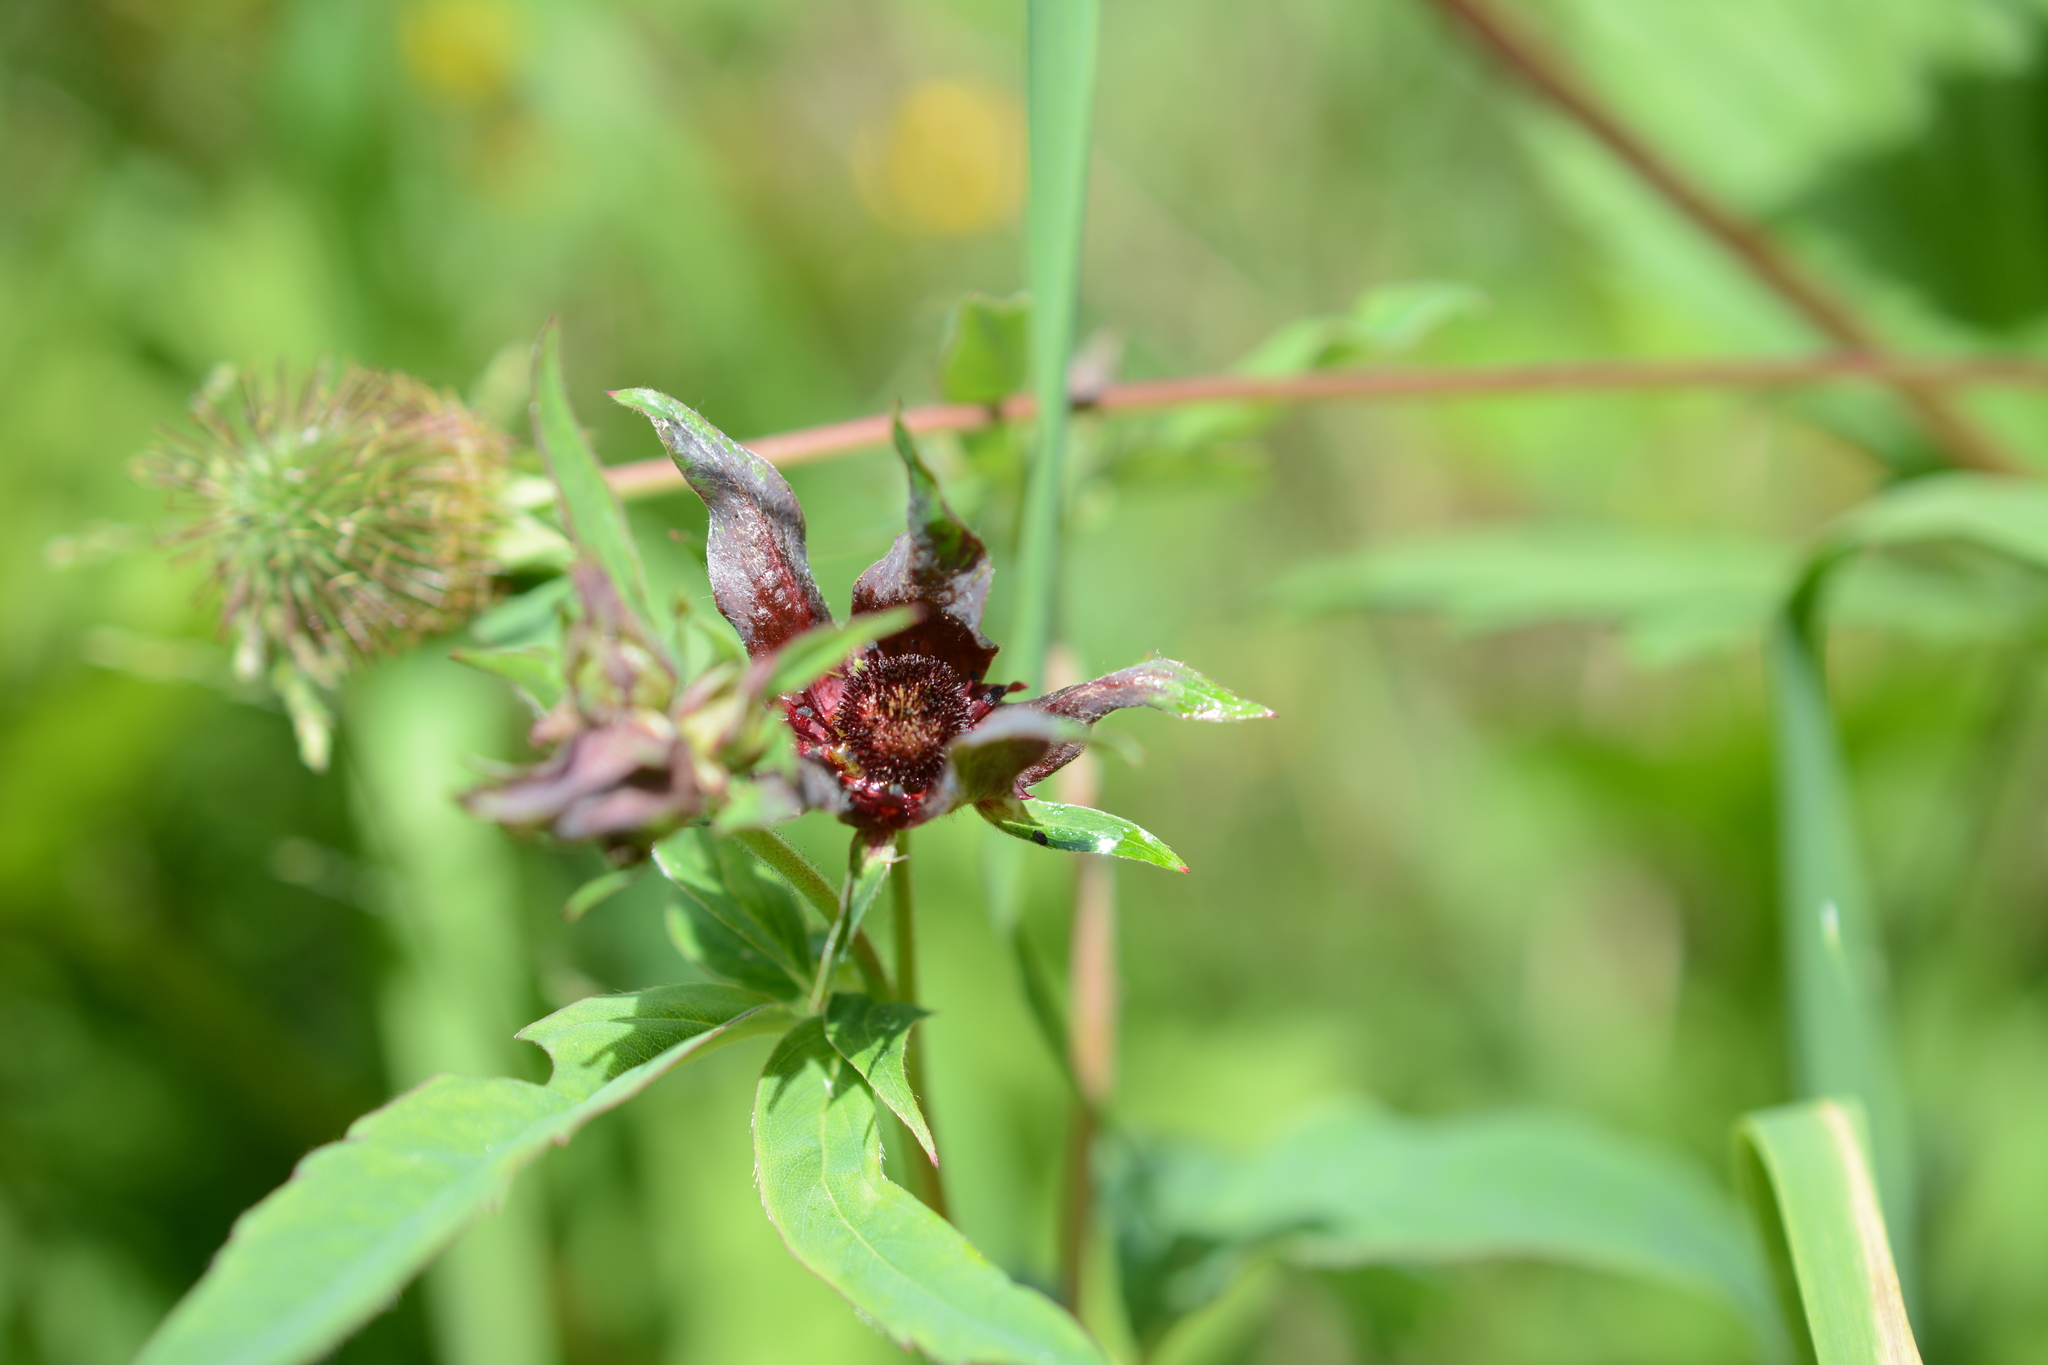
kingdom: Plantae
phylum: Tracheophyta
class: Magnoliopsida
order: Rosales
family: Rosaceae
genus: Comarum
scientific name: Comarum palustre
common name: Marsh cinquefoil
